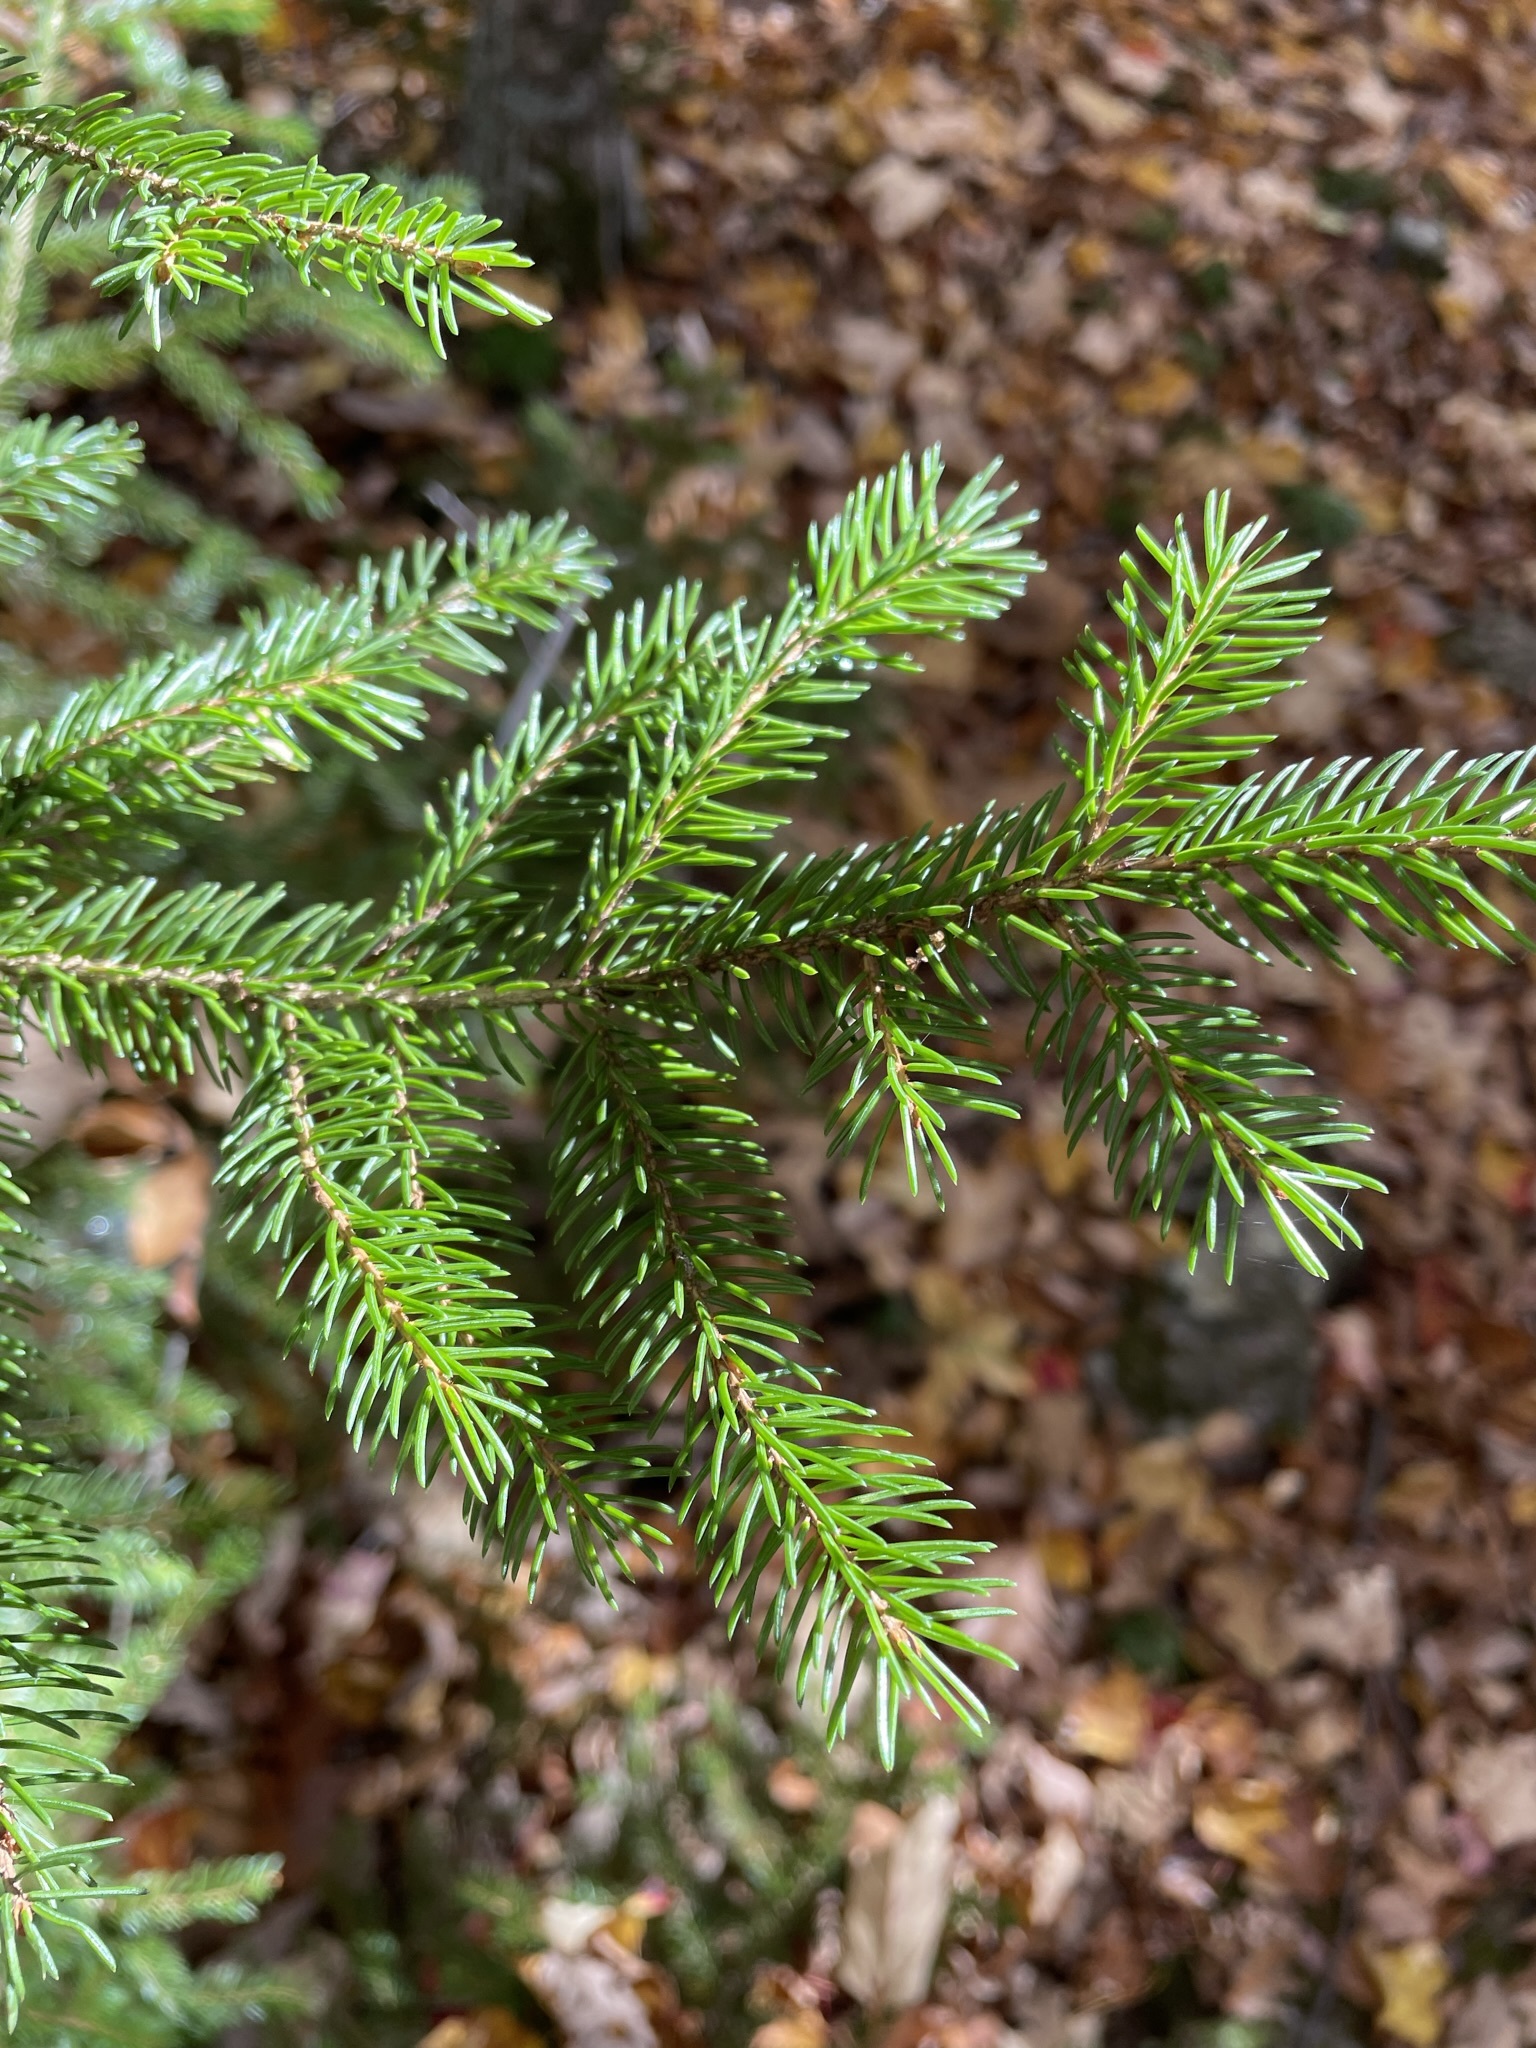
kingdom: Plantae
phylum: Tracheophyta
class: Pinopsida
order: Pinales
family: Pinaceae
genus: Picea
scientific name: Picea rubens
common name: Red spruce
